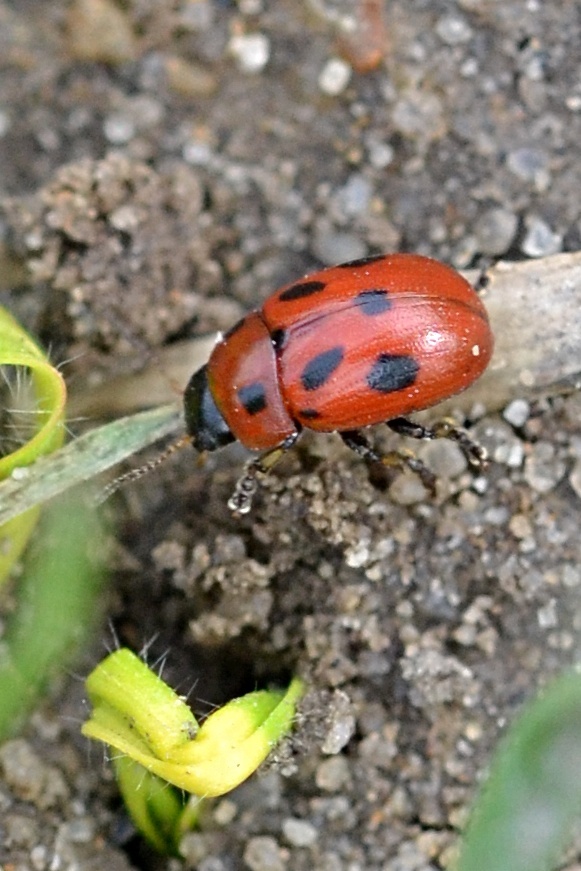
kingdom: Animalia
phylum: Arthropoda
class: Insecta
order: Coleoptera
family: Chrysomelidae
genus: Gonioctena
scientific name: Gonioctena fornicata
